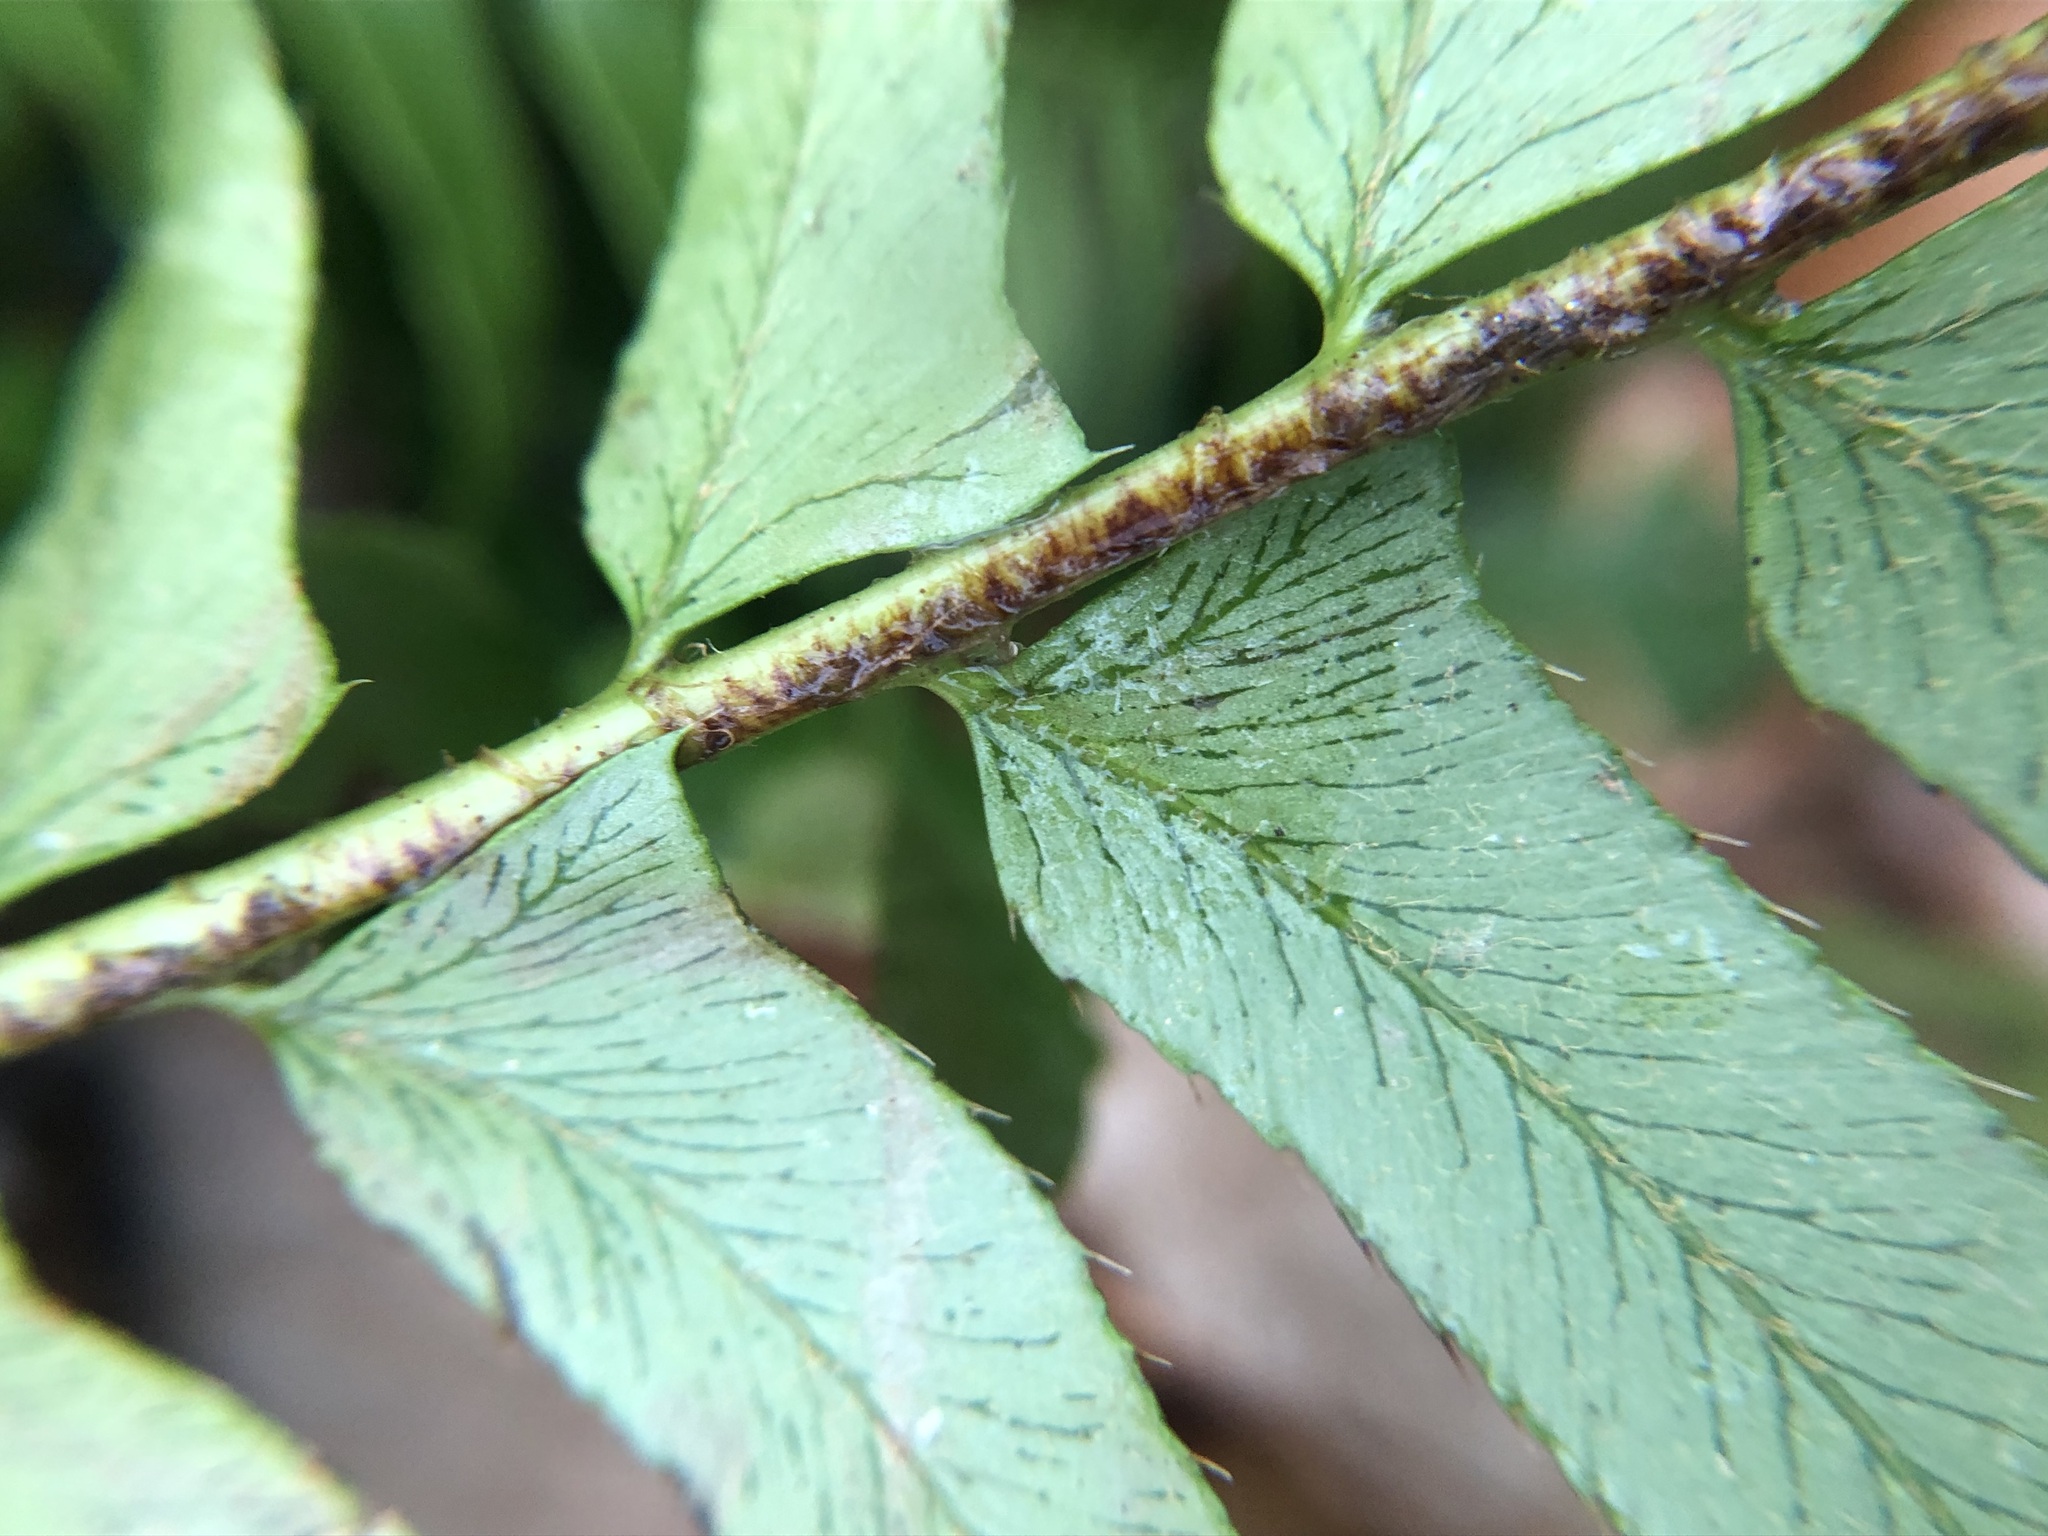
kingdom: Plantae
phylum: Tracheophyta
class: Polypodiopsida
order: Polypodiales
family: Dryopteridaceae
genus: Polystichum
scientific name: Polystichum acrostichoides
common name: Christmas fern
